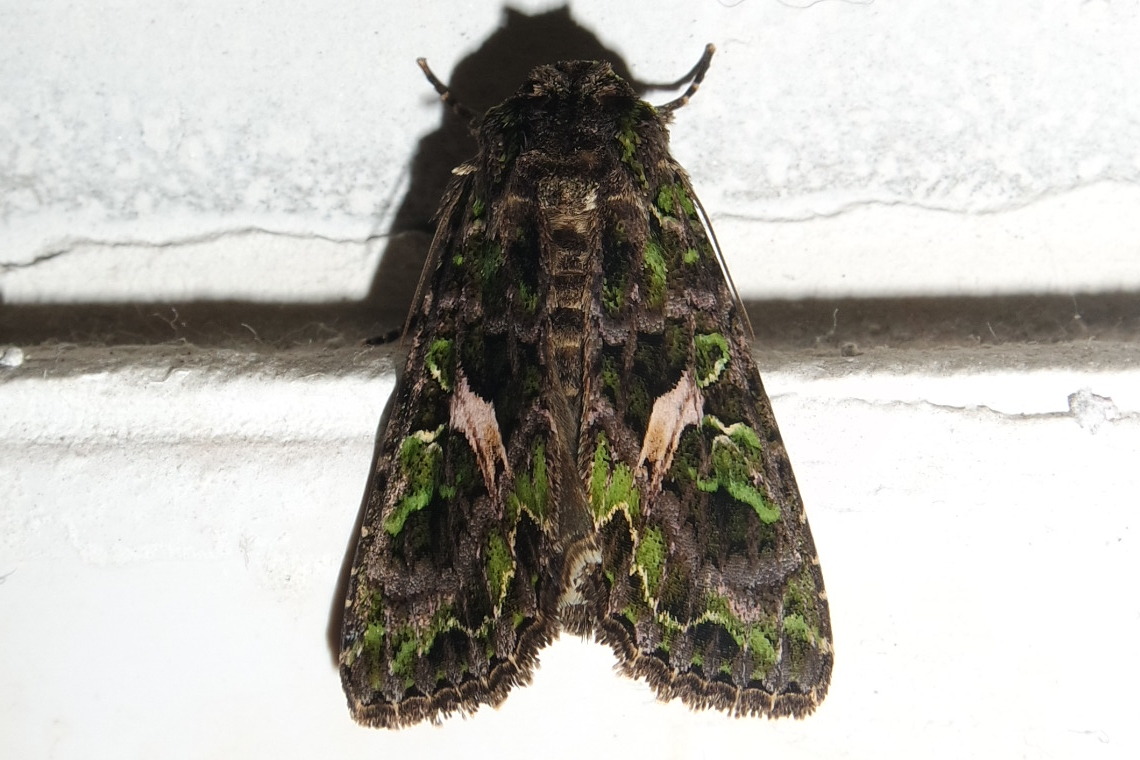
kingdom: Animalia
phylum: Arthropoda
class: Insecta
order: Lepidoptera
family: Noctuidae
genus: Trachea
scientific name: Trachea atriplicis
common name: Orache moth
